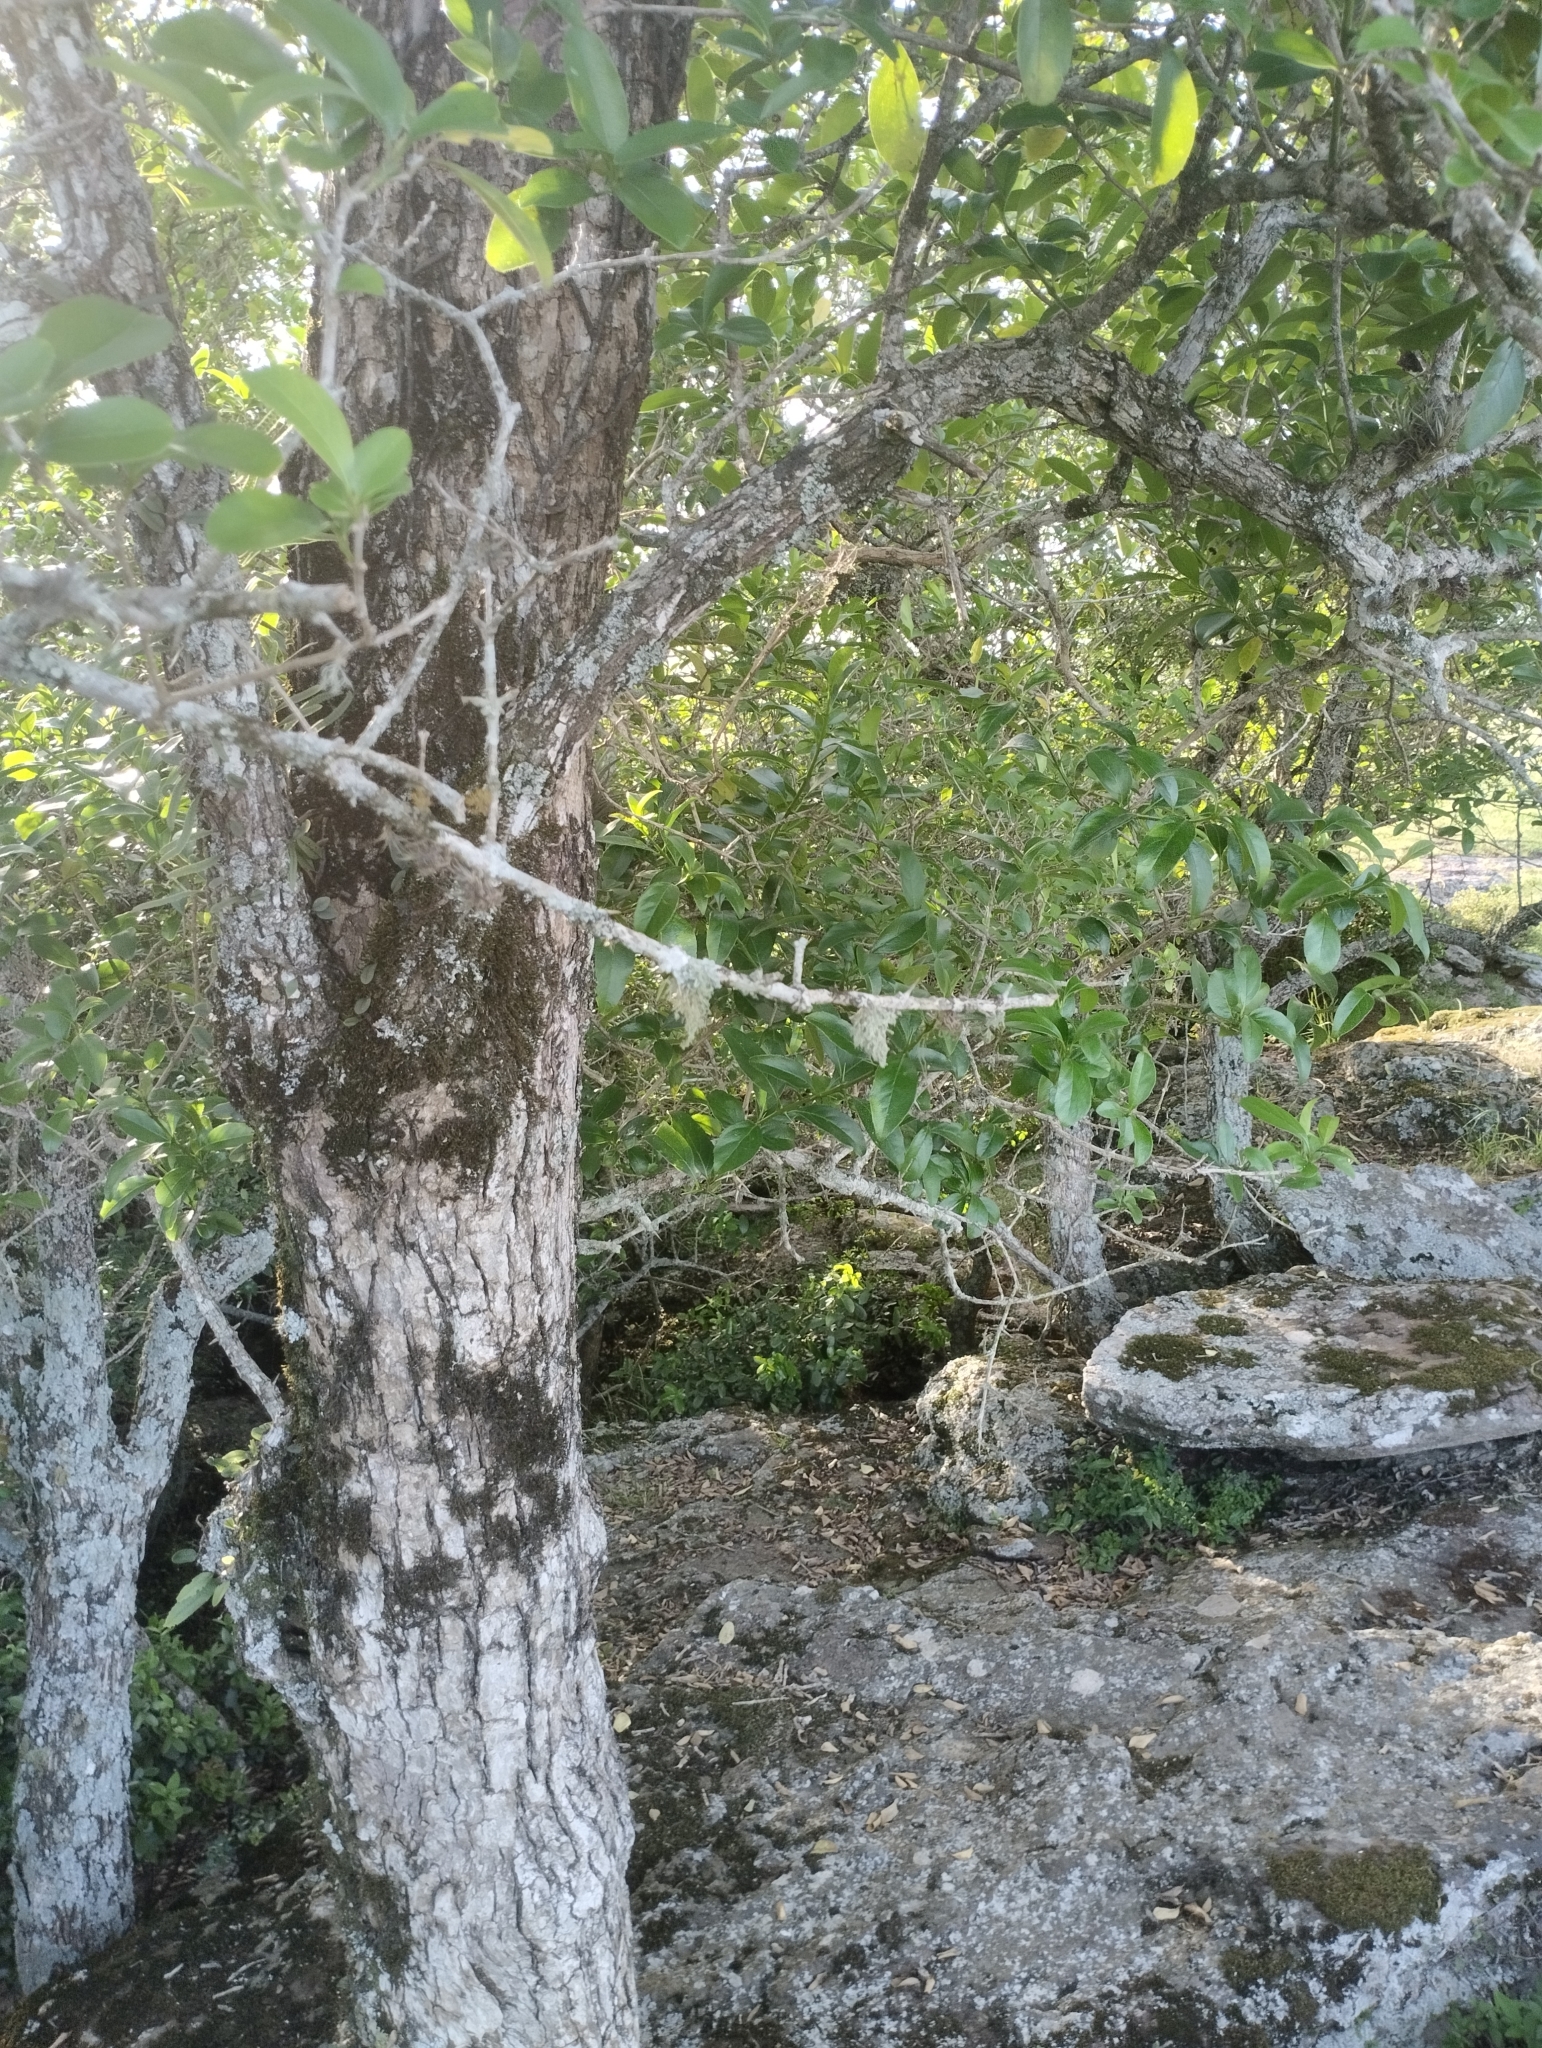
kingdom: Plantae
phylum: Tracheophyta
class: Magnoliopsida
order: Lamiales
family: Verbenaceae
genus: Citharexylum
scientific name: Citharexylum montevidense
